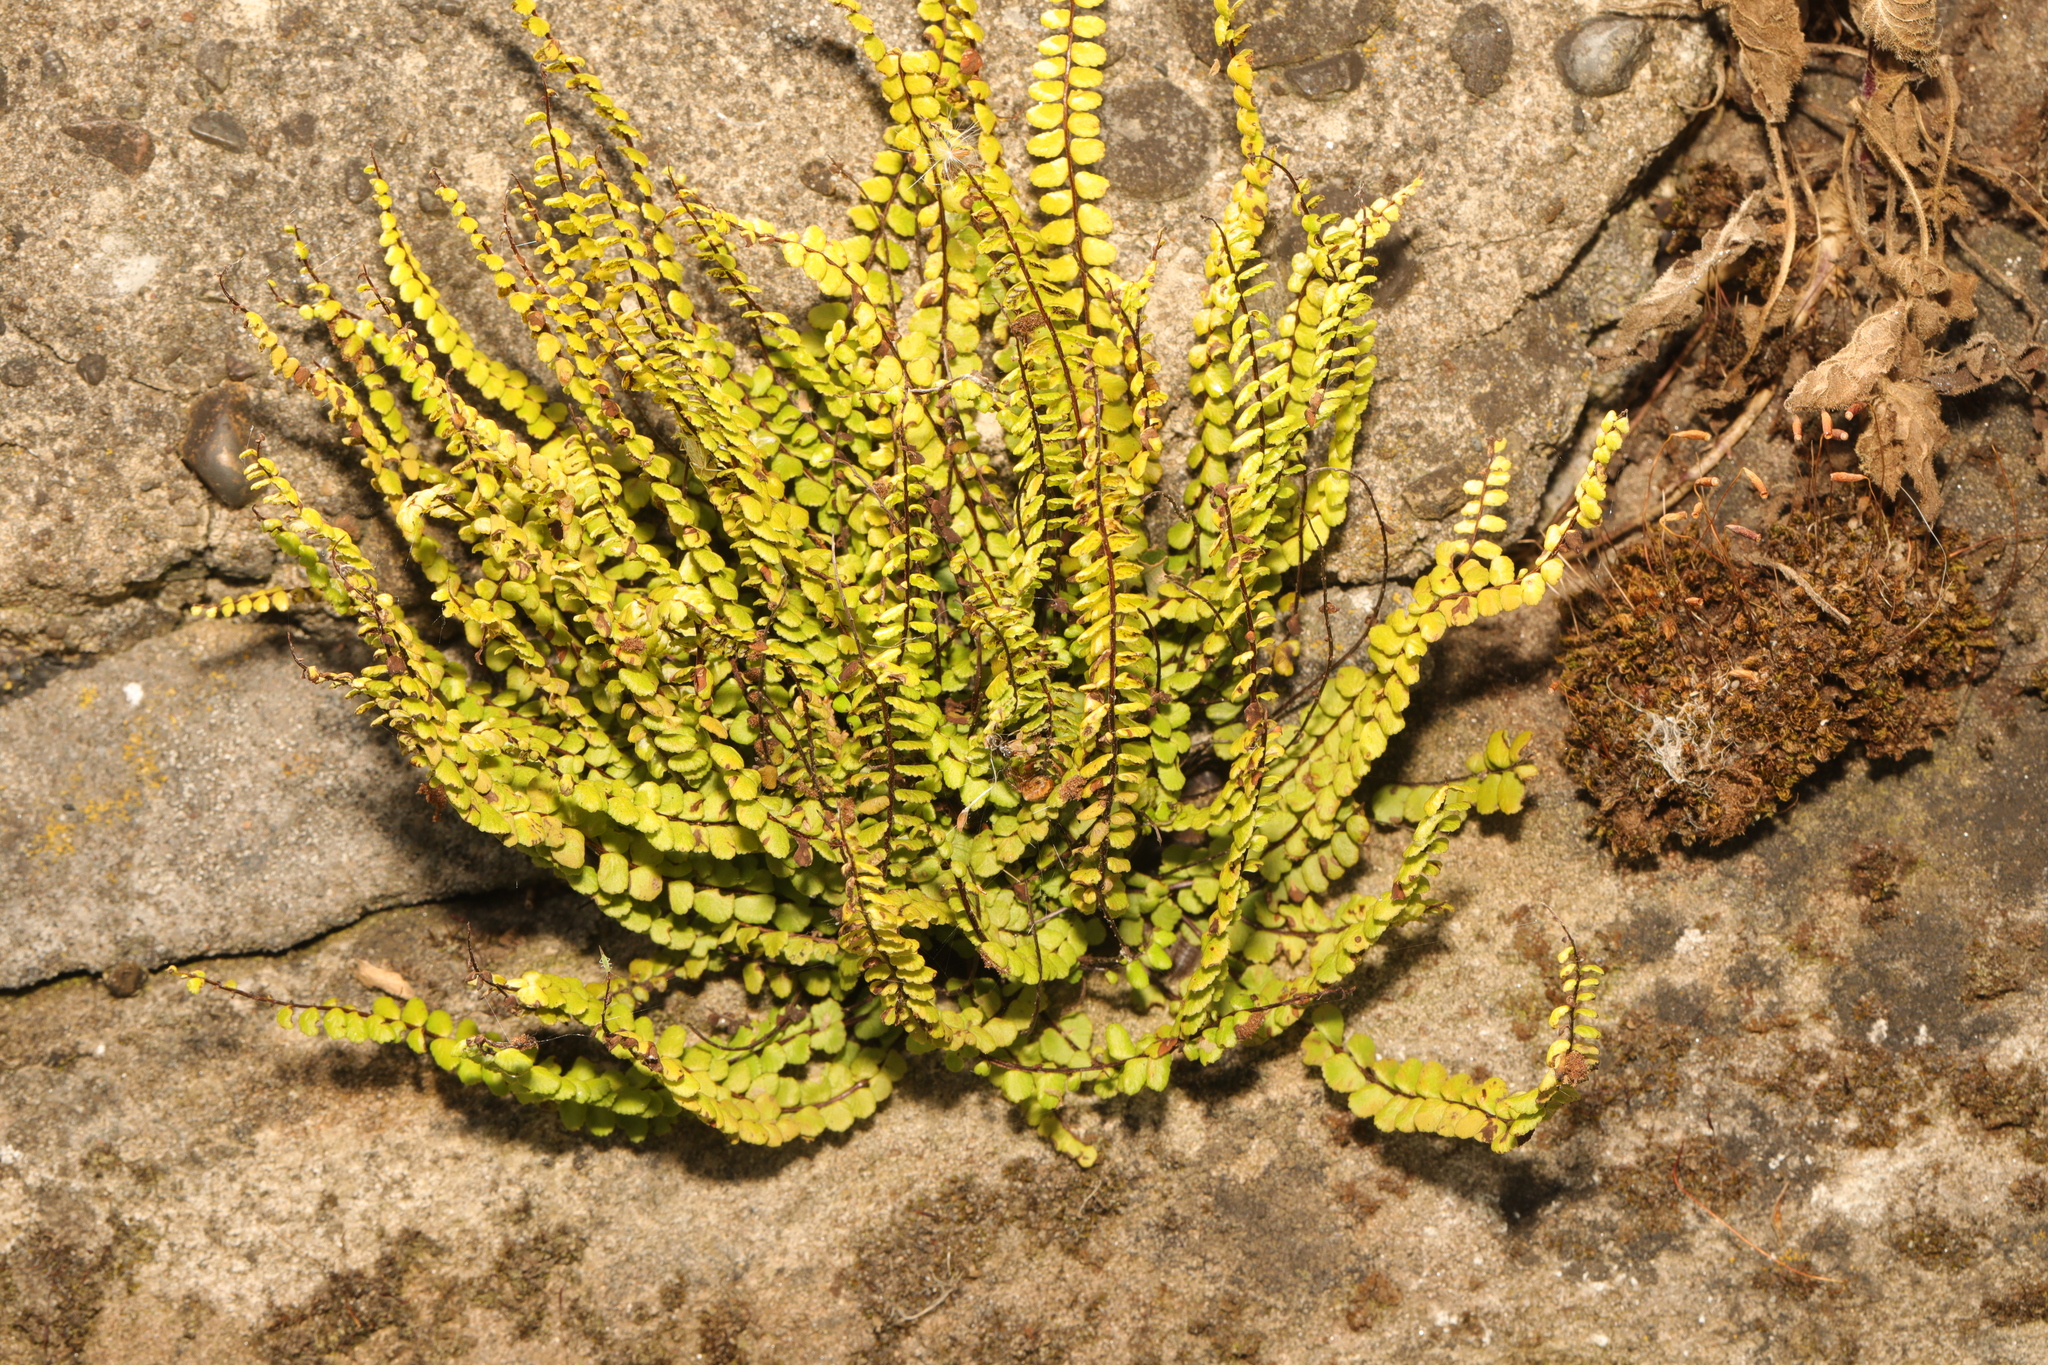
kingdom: Plantae
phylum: Tracheophyta
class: Polypodiopsida
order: Polypodiales
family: Aspleniaceae
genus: Asplenium
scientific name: Asplenium trichomanes
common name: Maidenhair spleenwort
